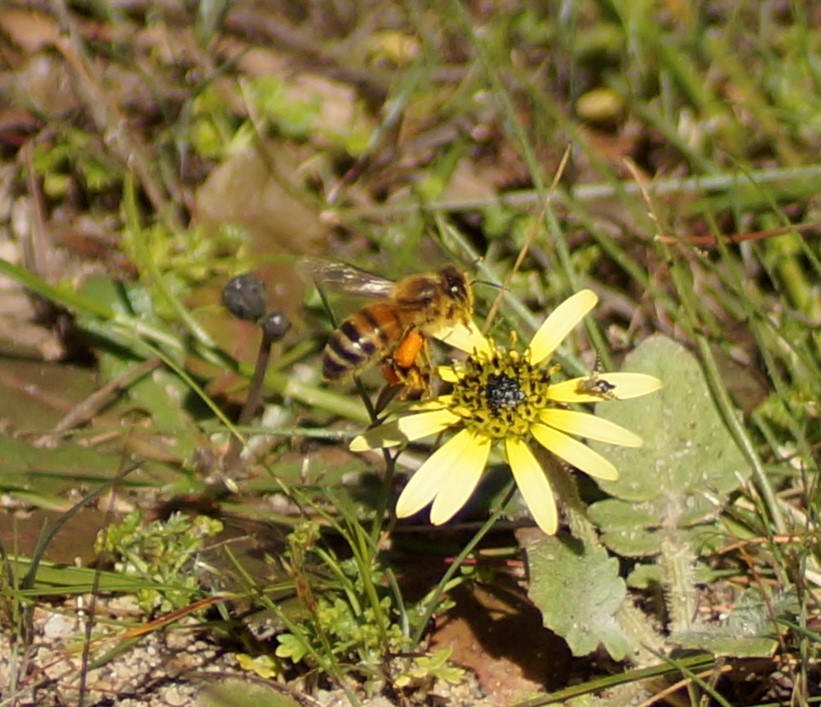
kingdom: Animalia
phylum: Arthropoda
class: Insecta
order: Hymenoptera
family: Apidae
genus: Apis
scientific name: Apis mellifera
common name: Honey bee
